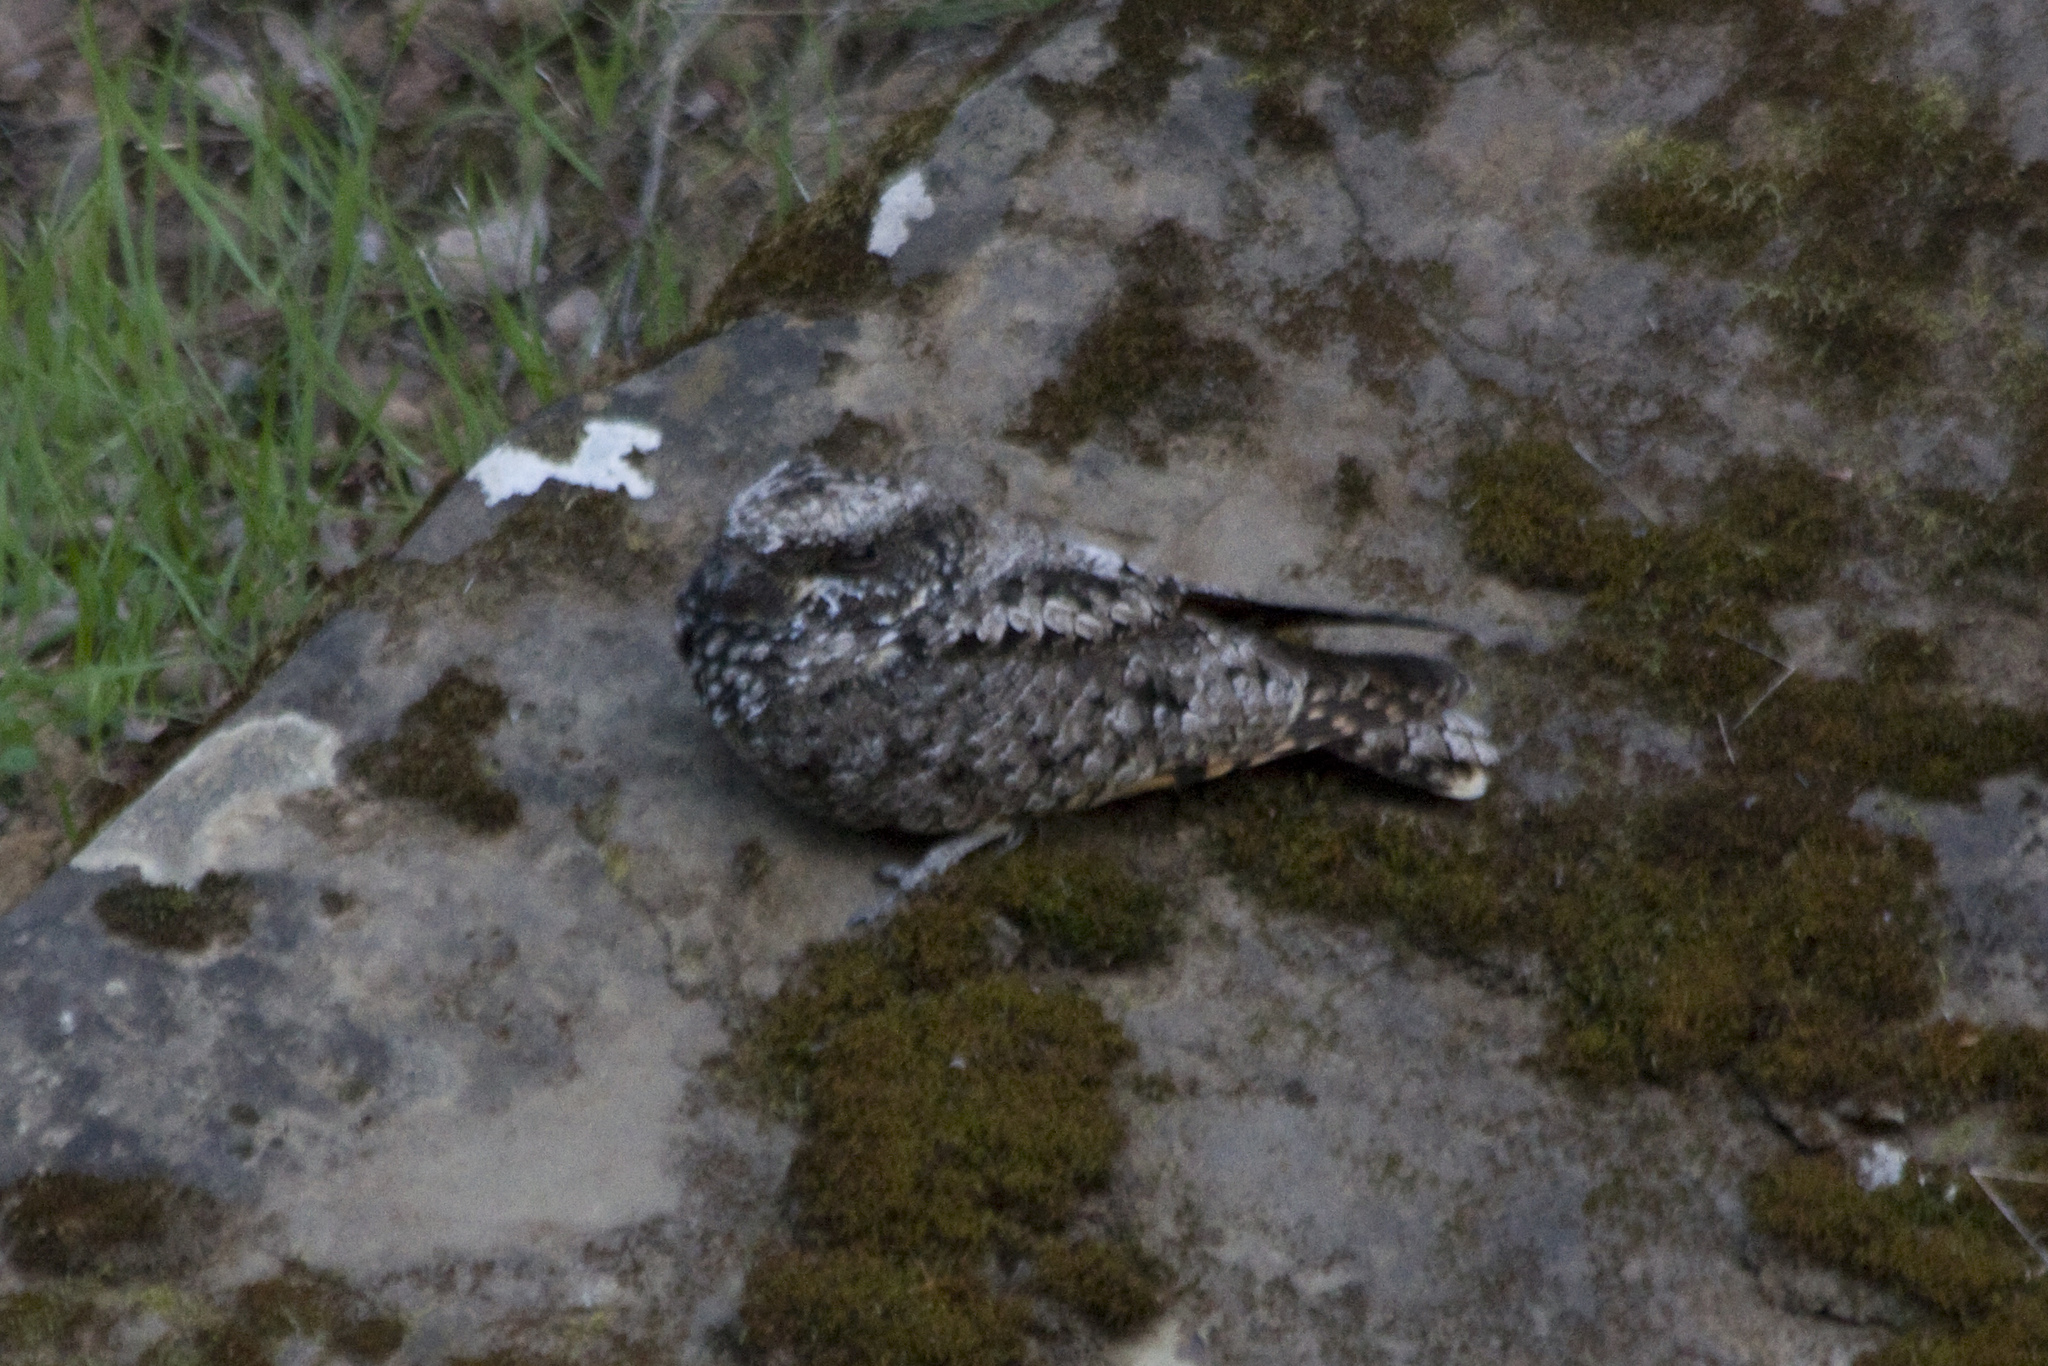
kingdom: Animalia
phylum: Chordata
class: Aves
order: Caprimulgiformes
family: Caprimulgidae
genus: Phalaenoptilus
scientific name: Phalaenoptilus nuttallii
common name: Common poorwill
